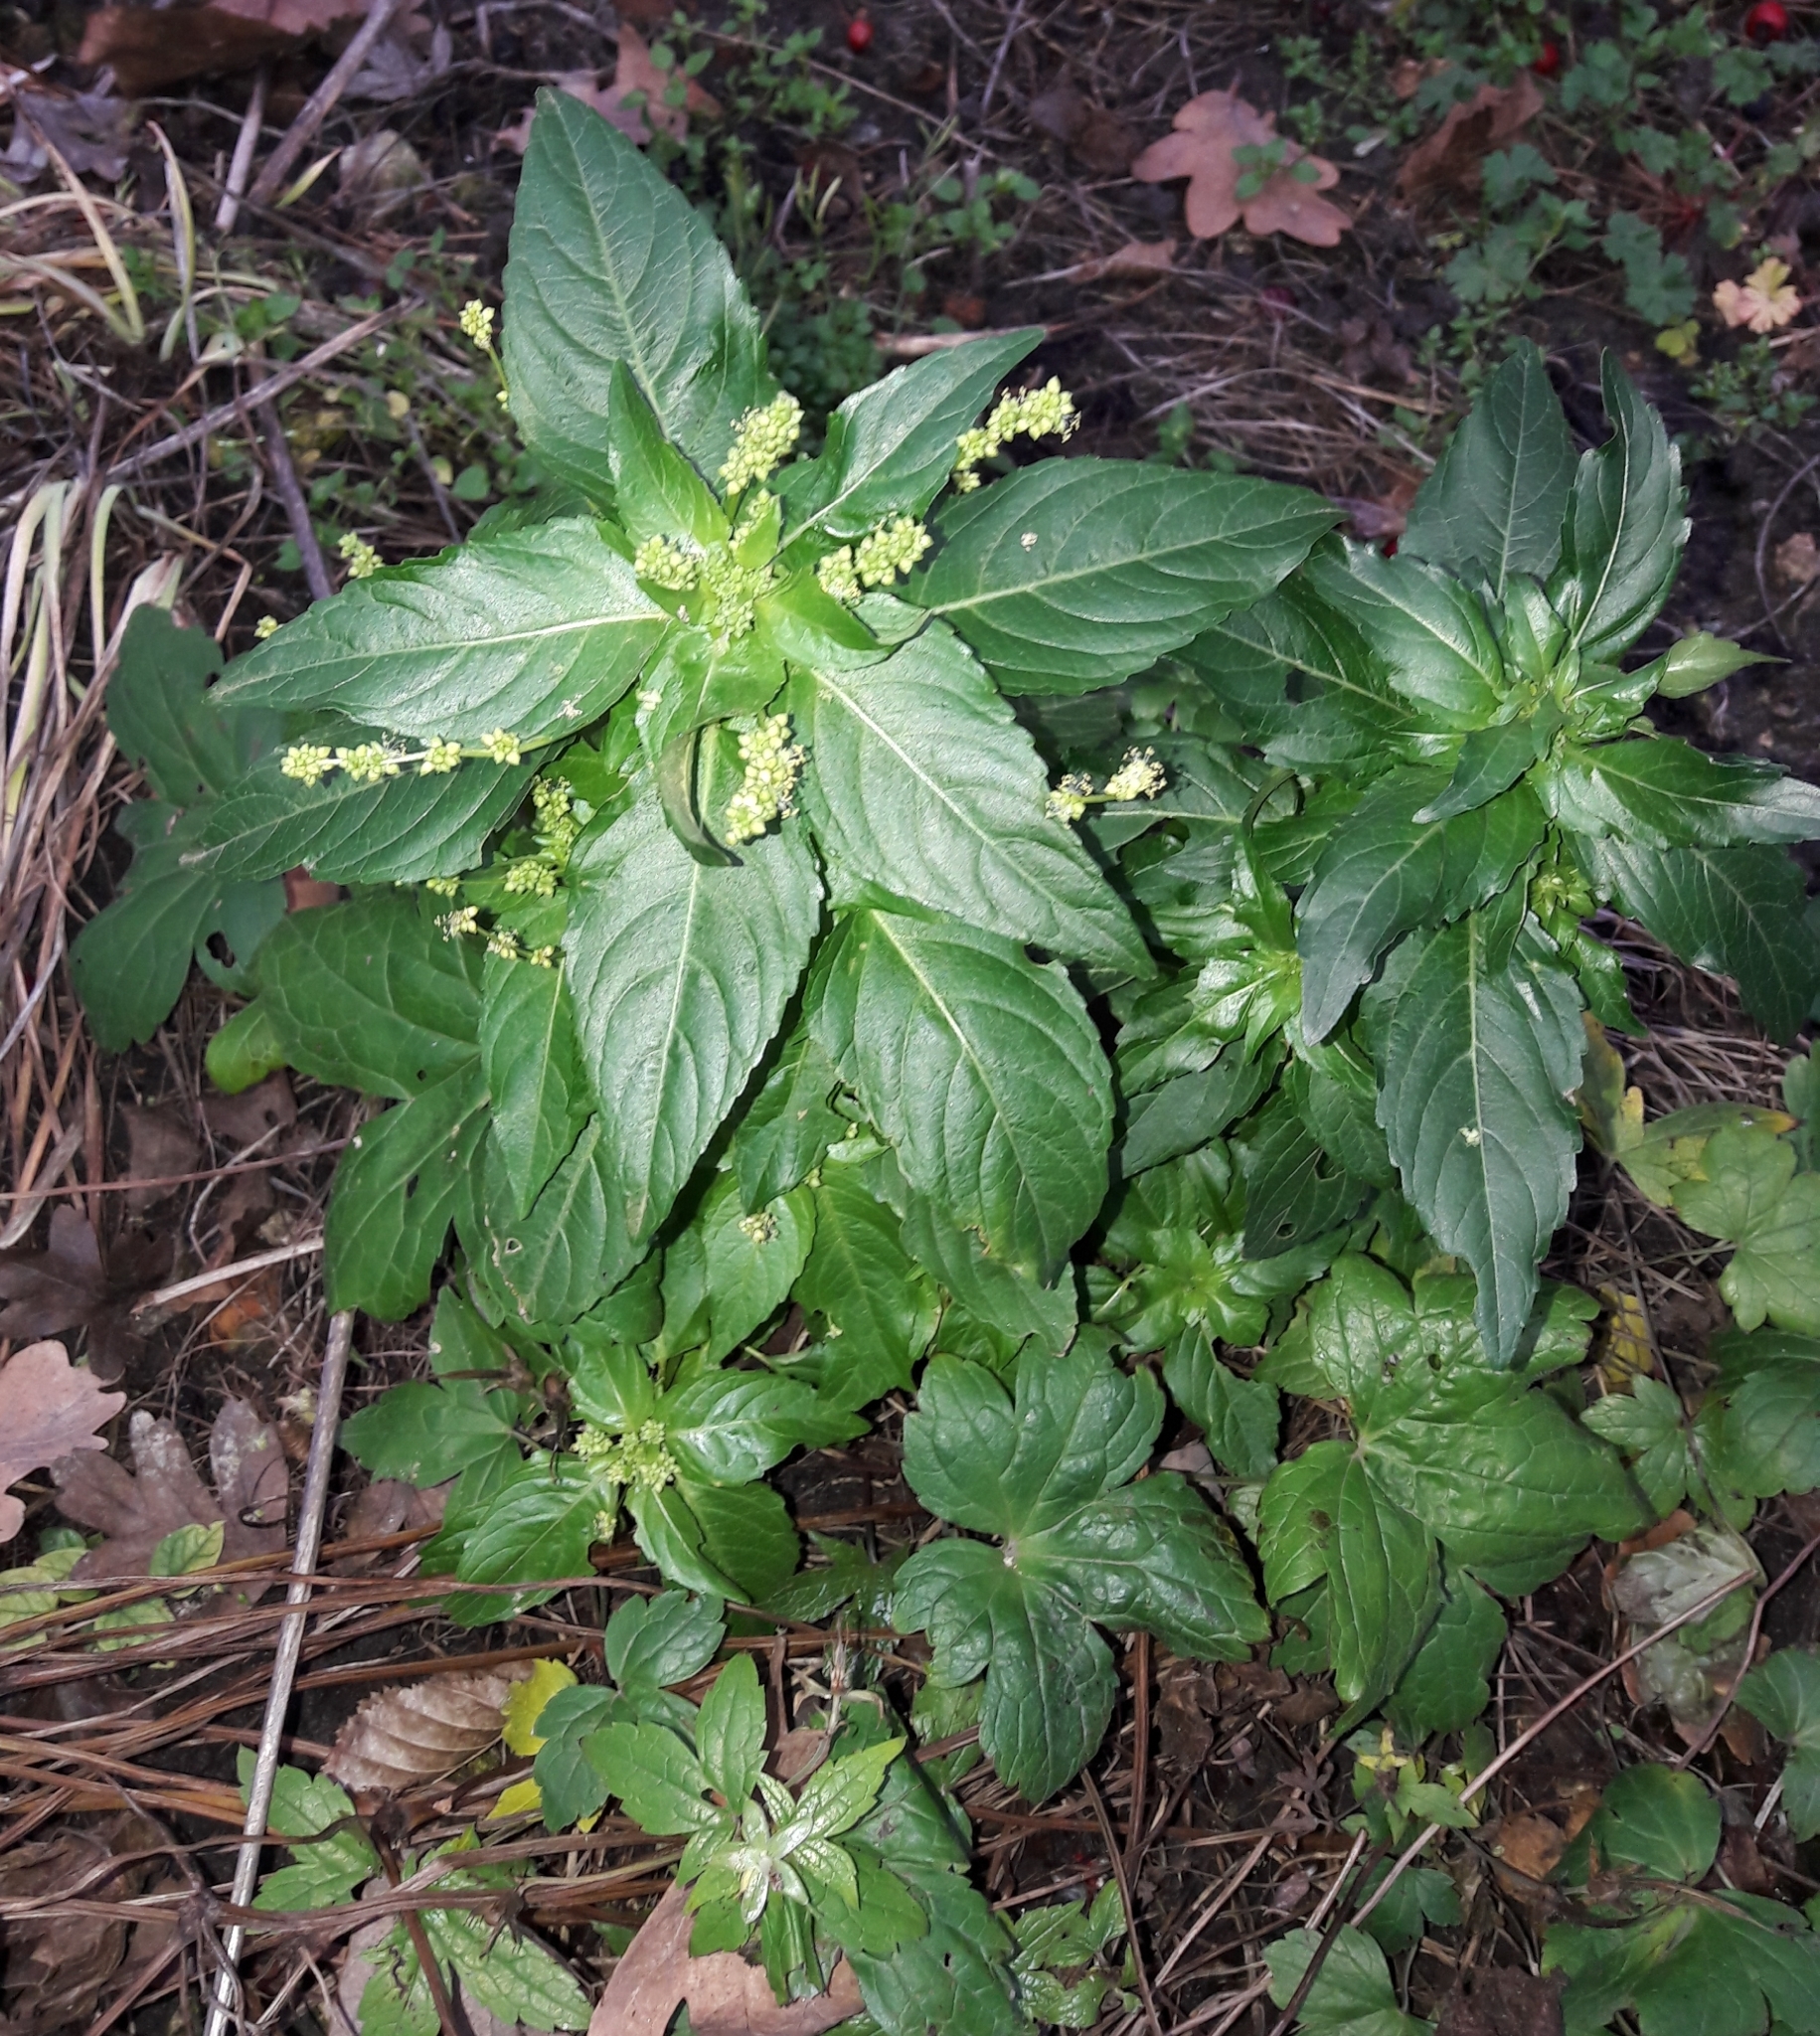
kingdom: Plantae
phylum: Tracheophyta
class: Magnoliopsida
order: Malpighiales
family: Euphorbiaceae
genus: Mercurialis
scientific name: Mercurialis annua
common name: Annual mercury
